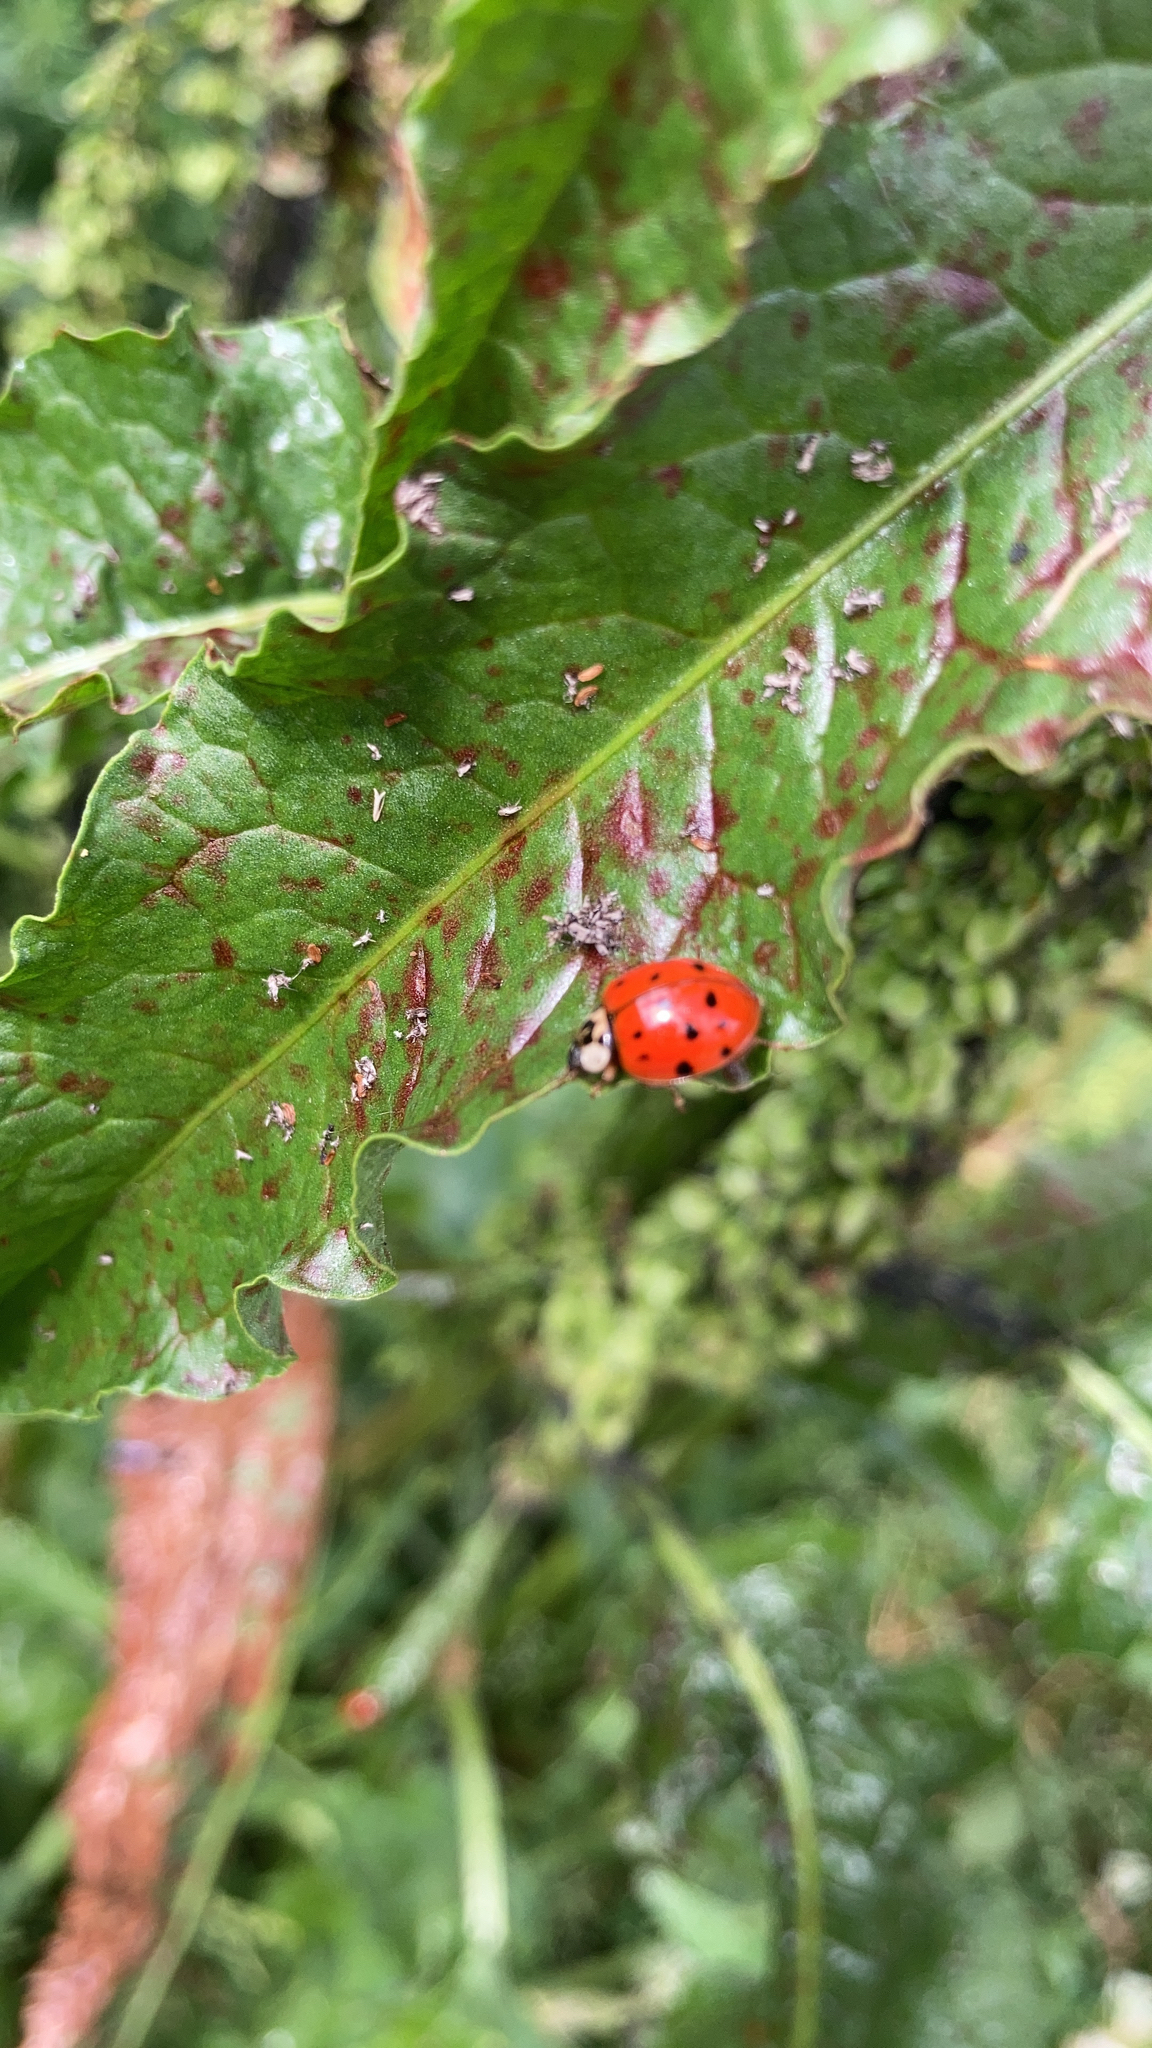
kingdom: Animalia
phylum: Arthropoda
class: Insecta
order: Coleoptera
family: Coccinellidae
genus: Harmonia
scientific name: Harmonia axyridis
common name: Harlequin ladybird
